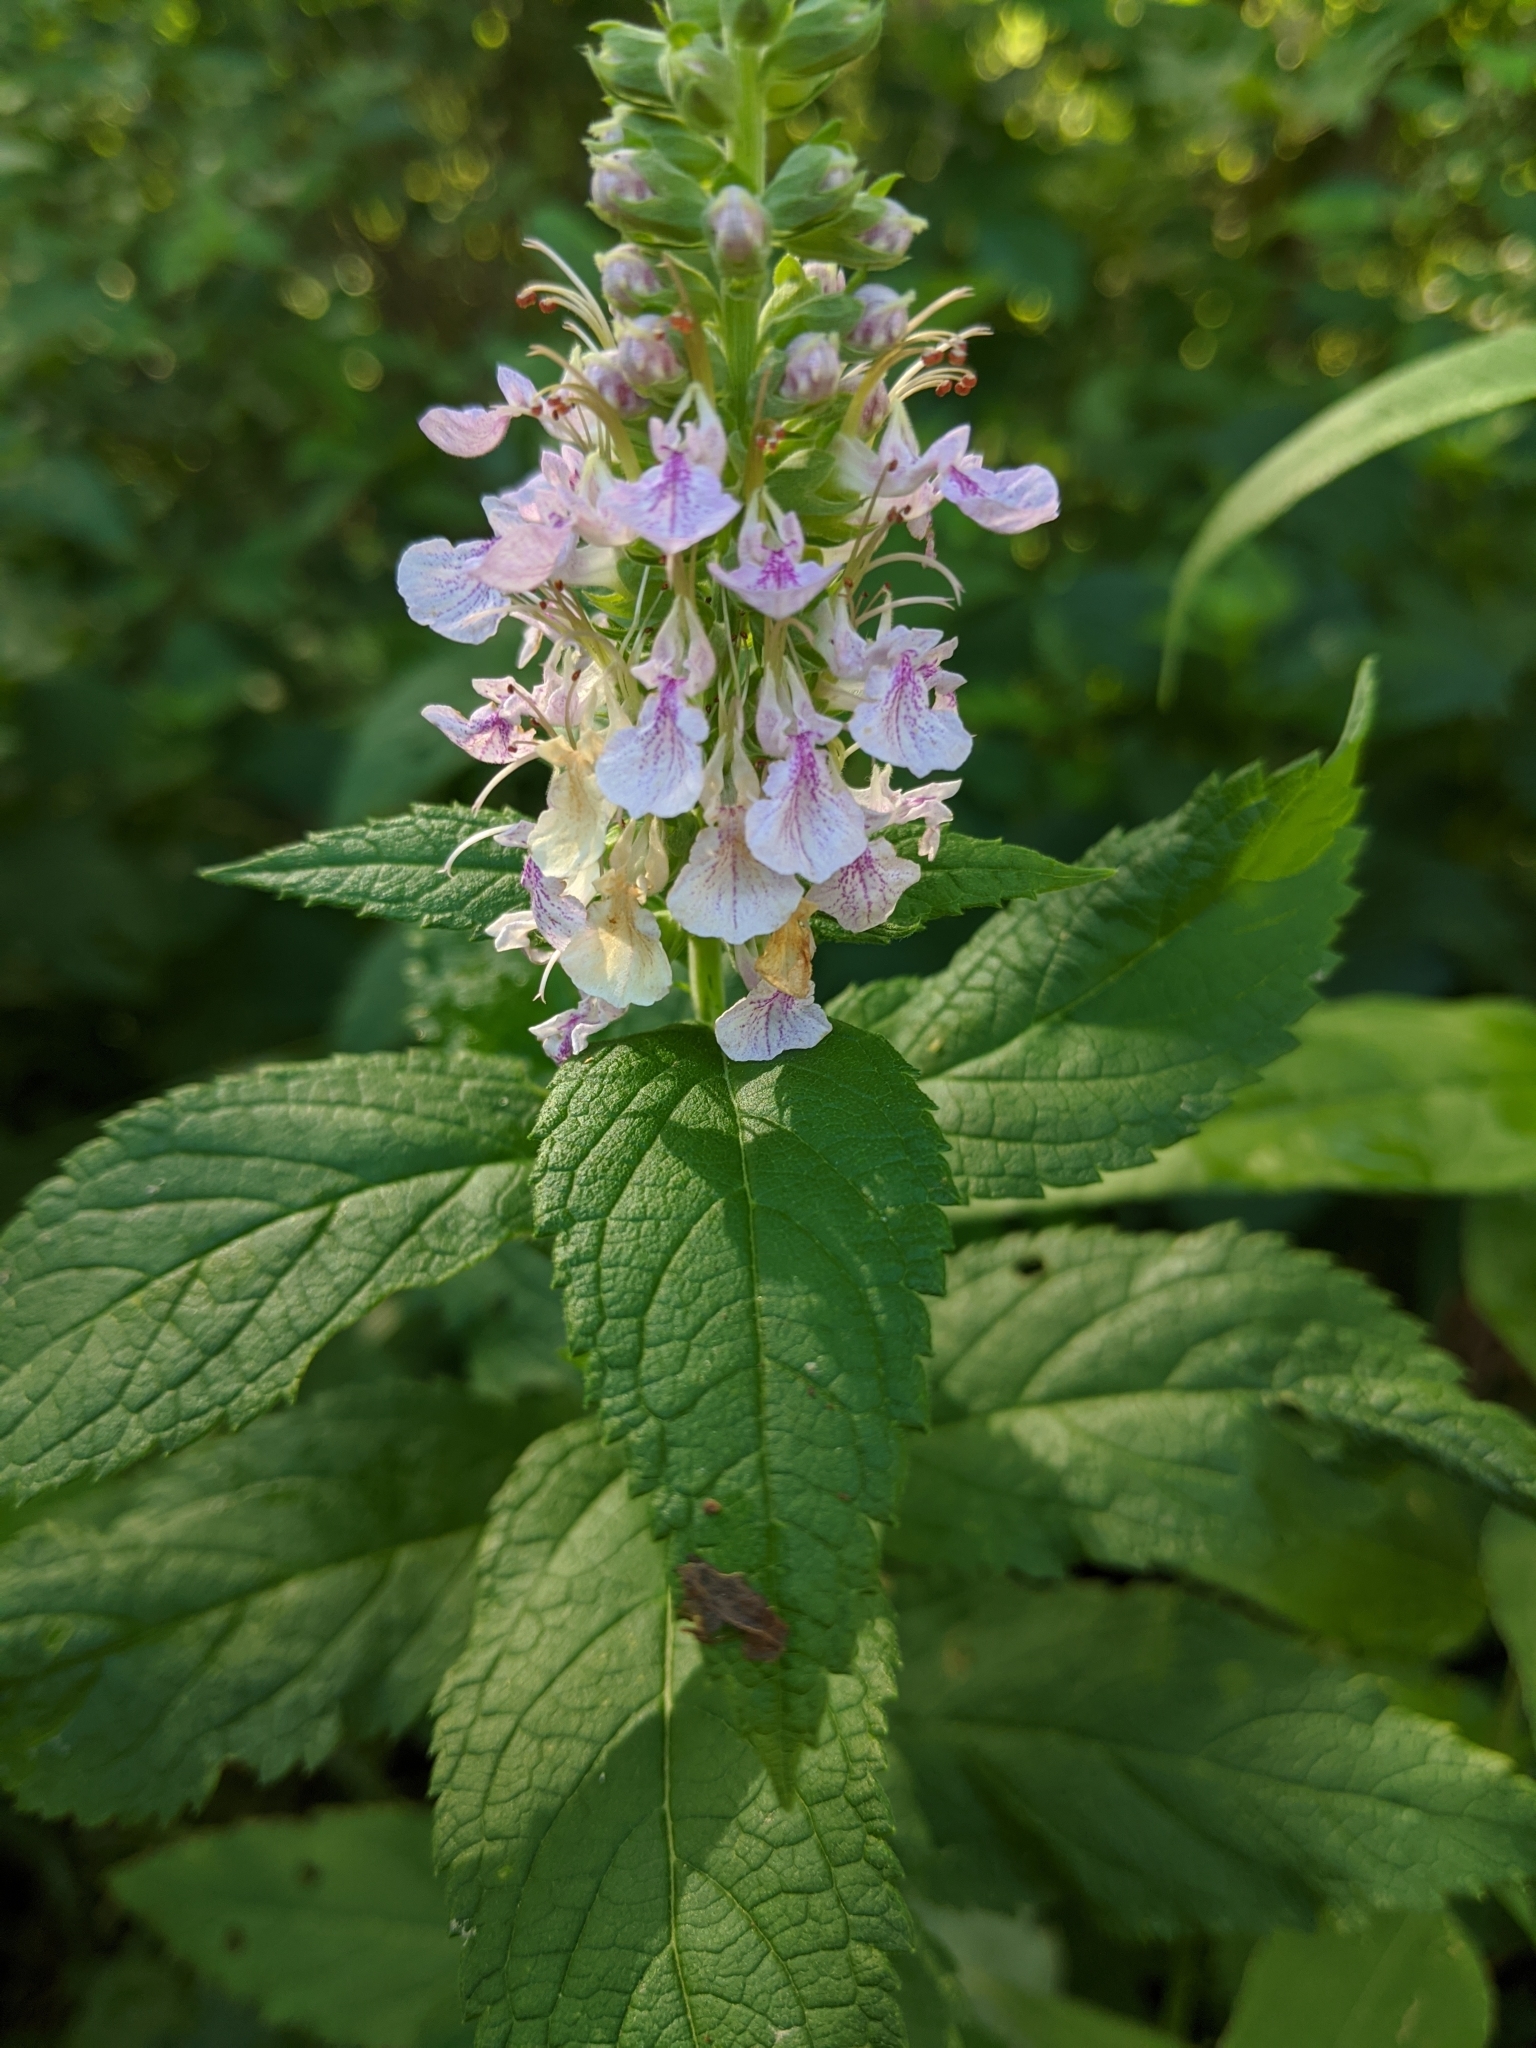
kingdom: Plantae
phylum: Tracheophyta
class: Magnoliopsida
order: Lamiales
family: Lamiaceae
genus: Teucrium
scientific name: Teucrium canadense
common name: American germander
